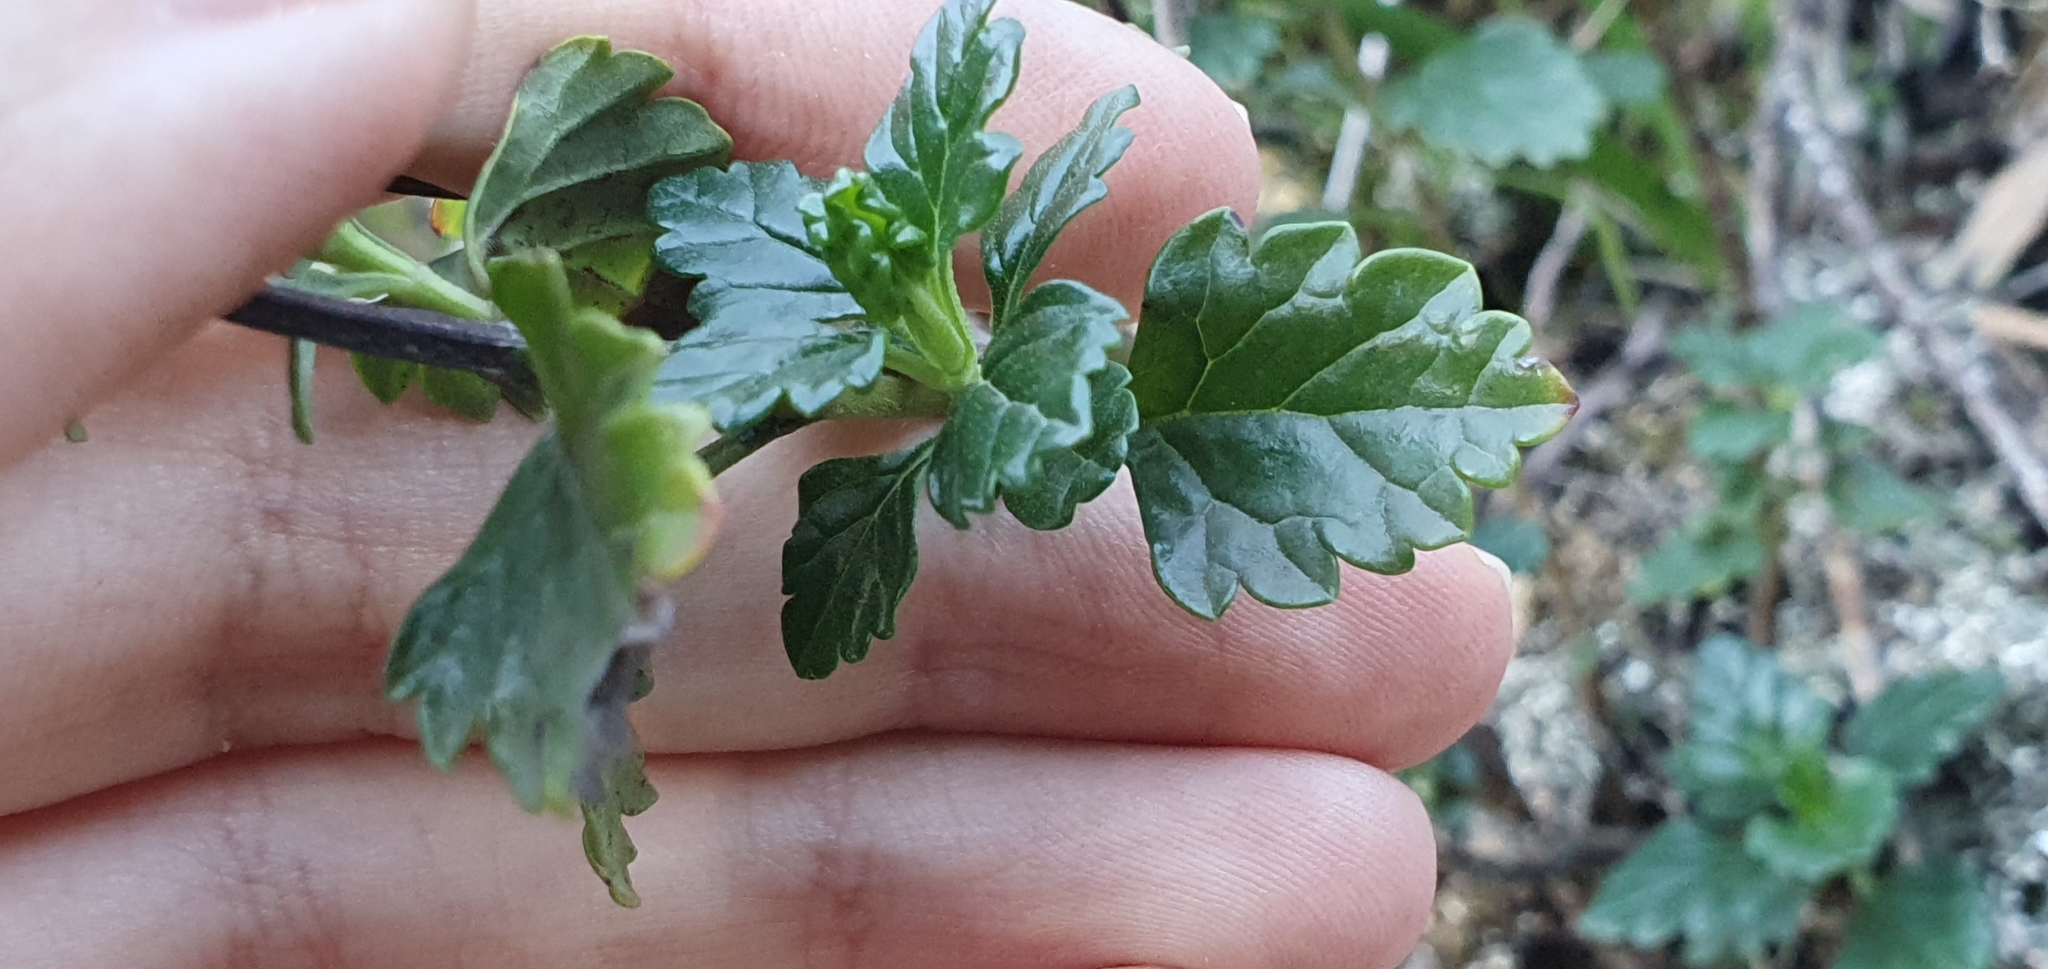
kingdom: Plantae
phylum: Tracheophyta
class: Magnoliopsida
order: Lamiales
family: Lamiaceae
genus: Teucrium
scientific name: Teucrium flavum
